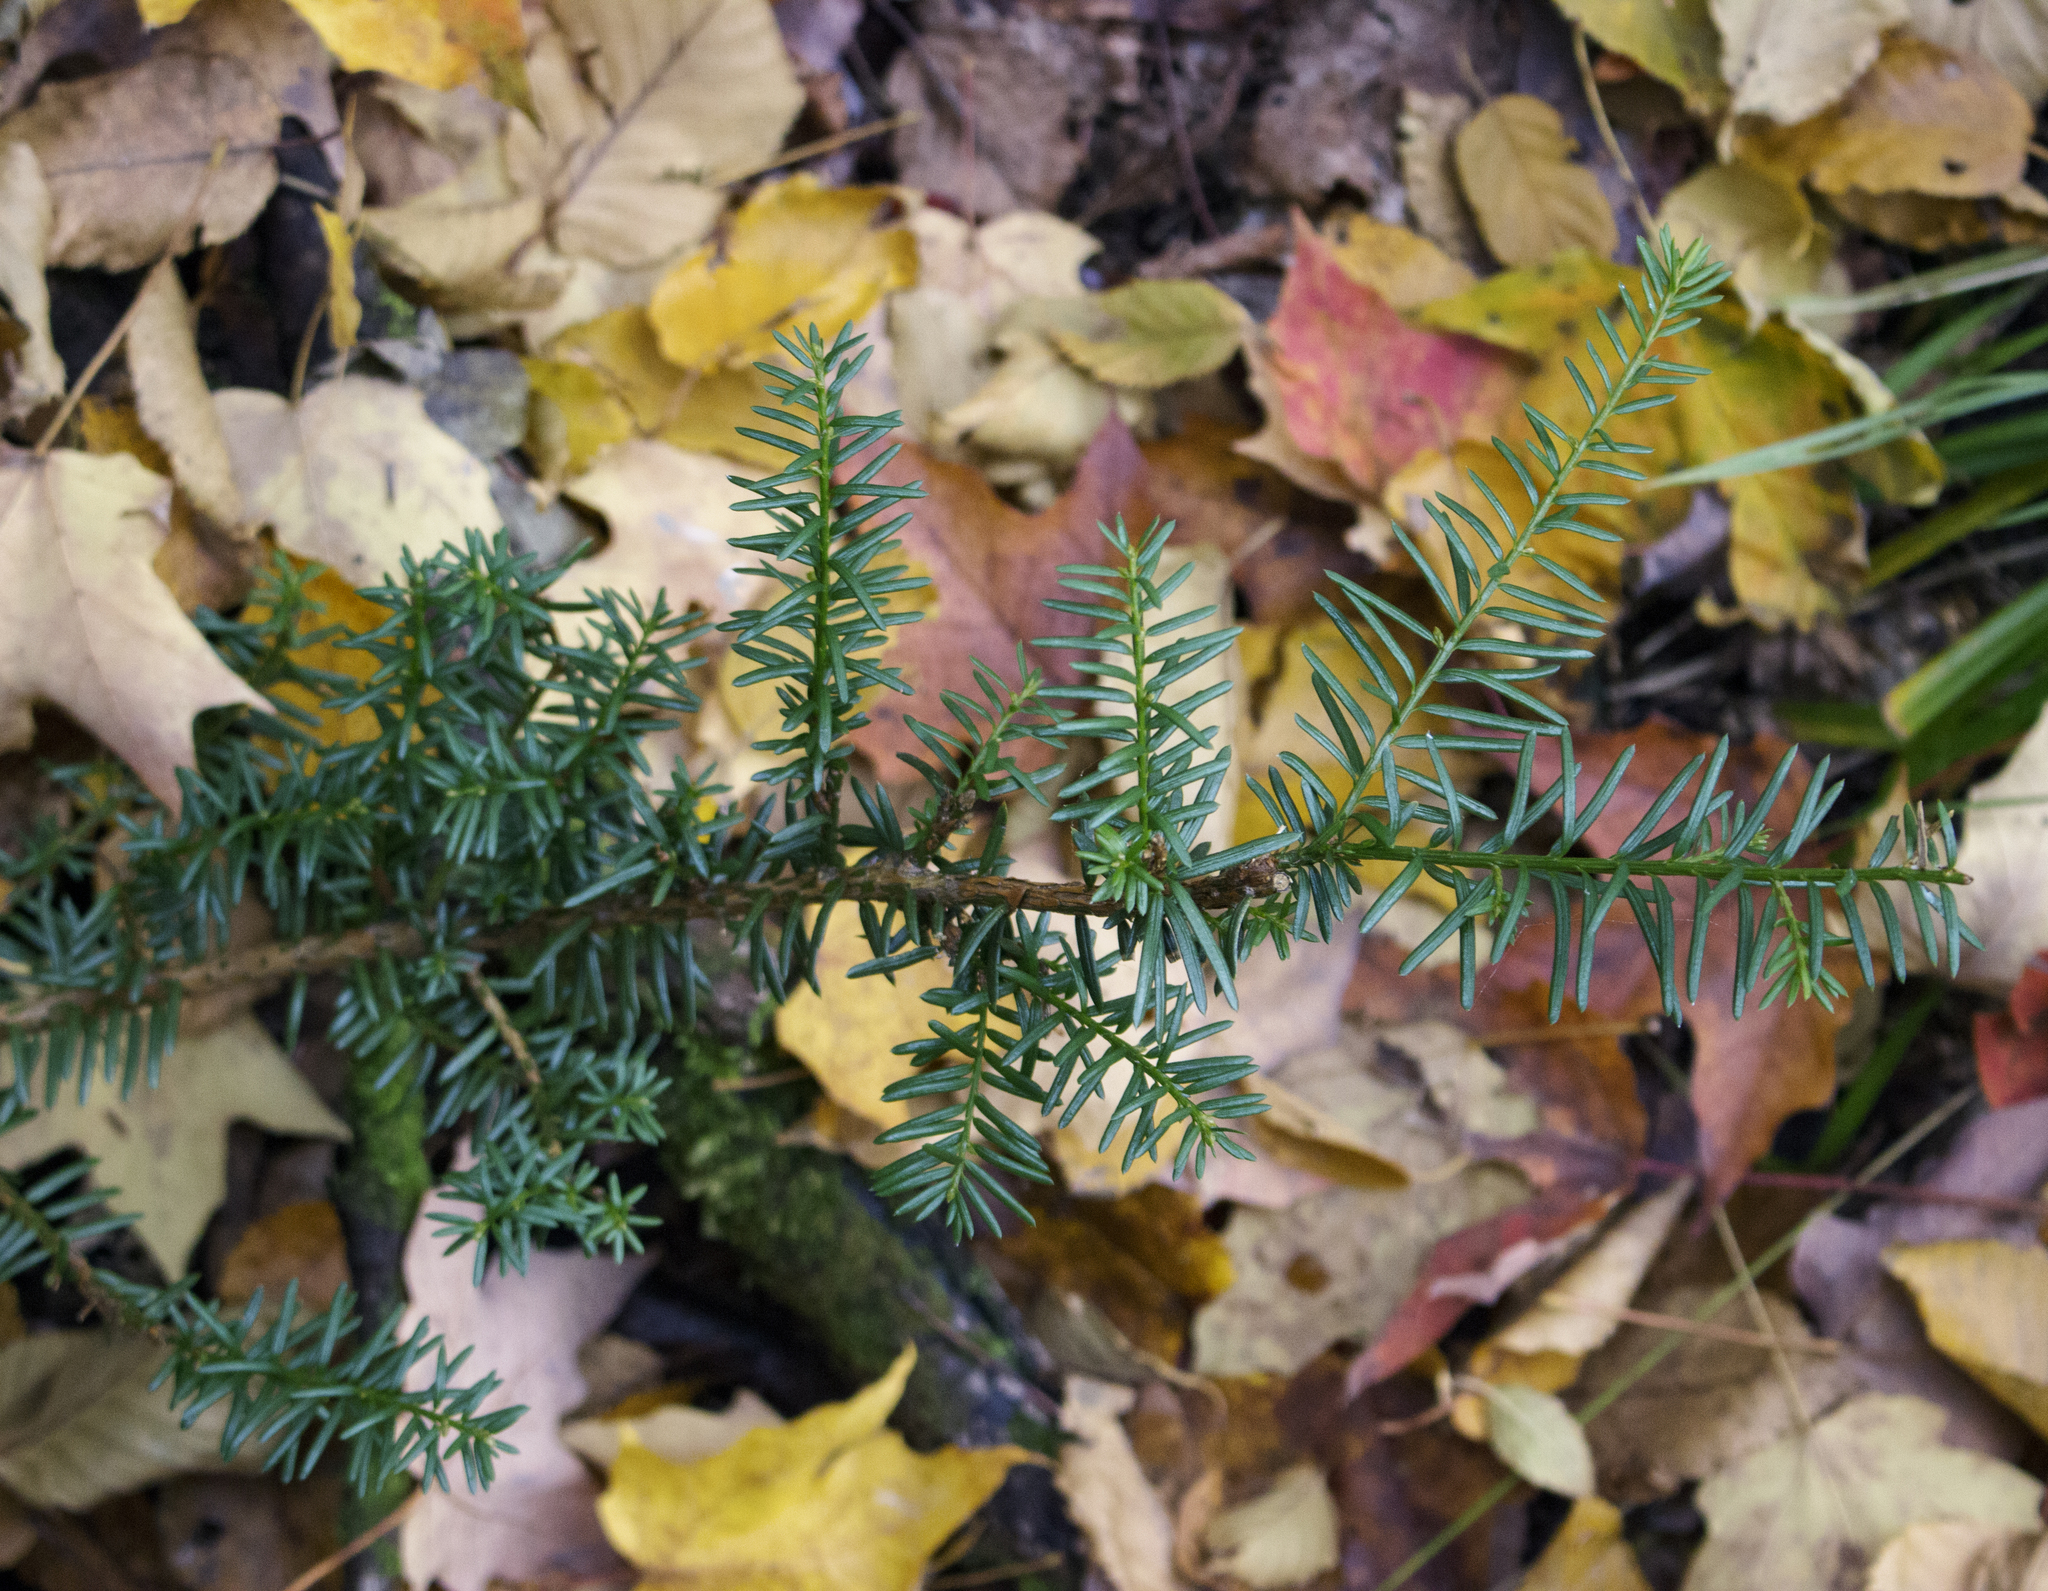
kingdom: Plantae
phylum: Tracheophyta
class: Pinopsida
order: Pinales
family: Taxaceae
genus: Taxus
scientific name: Taxus canadensis
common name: American yew
